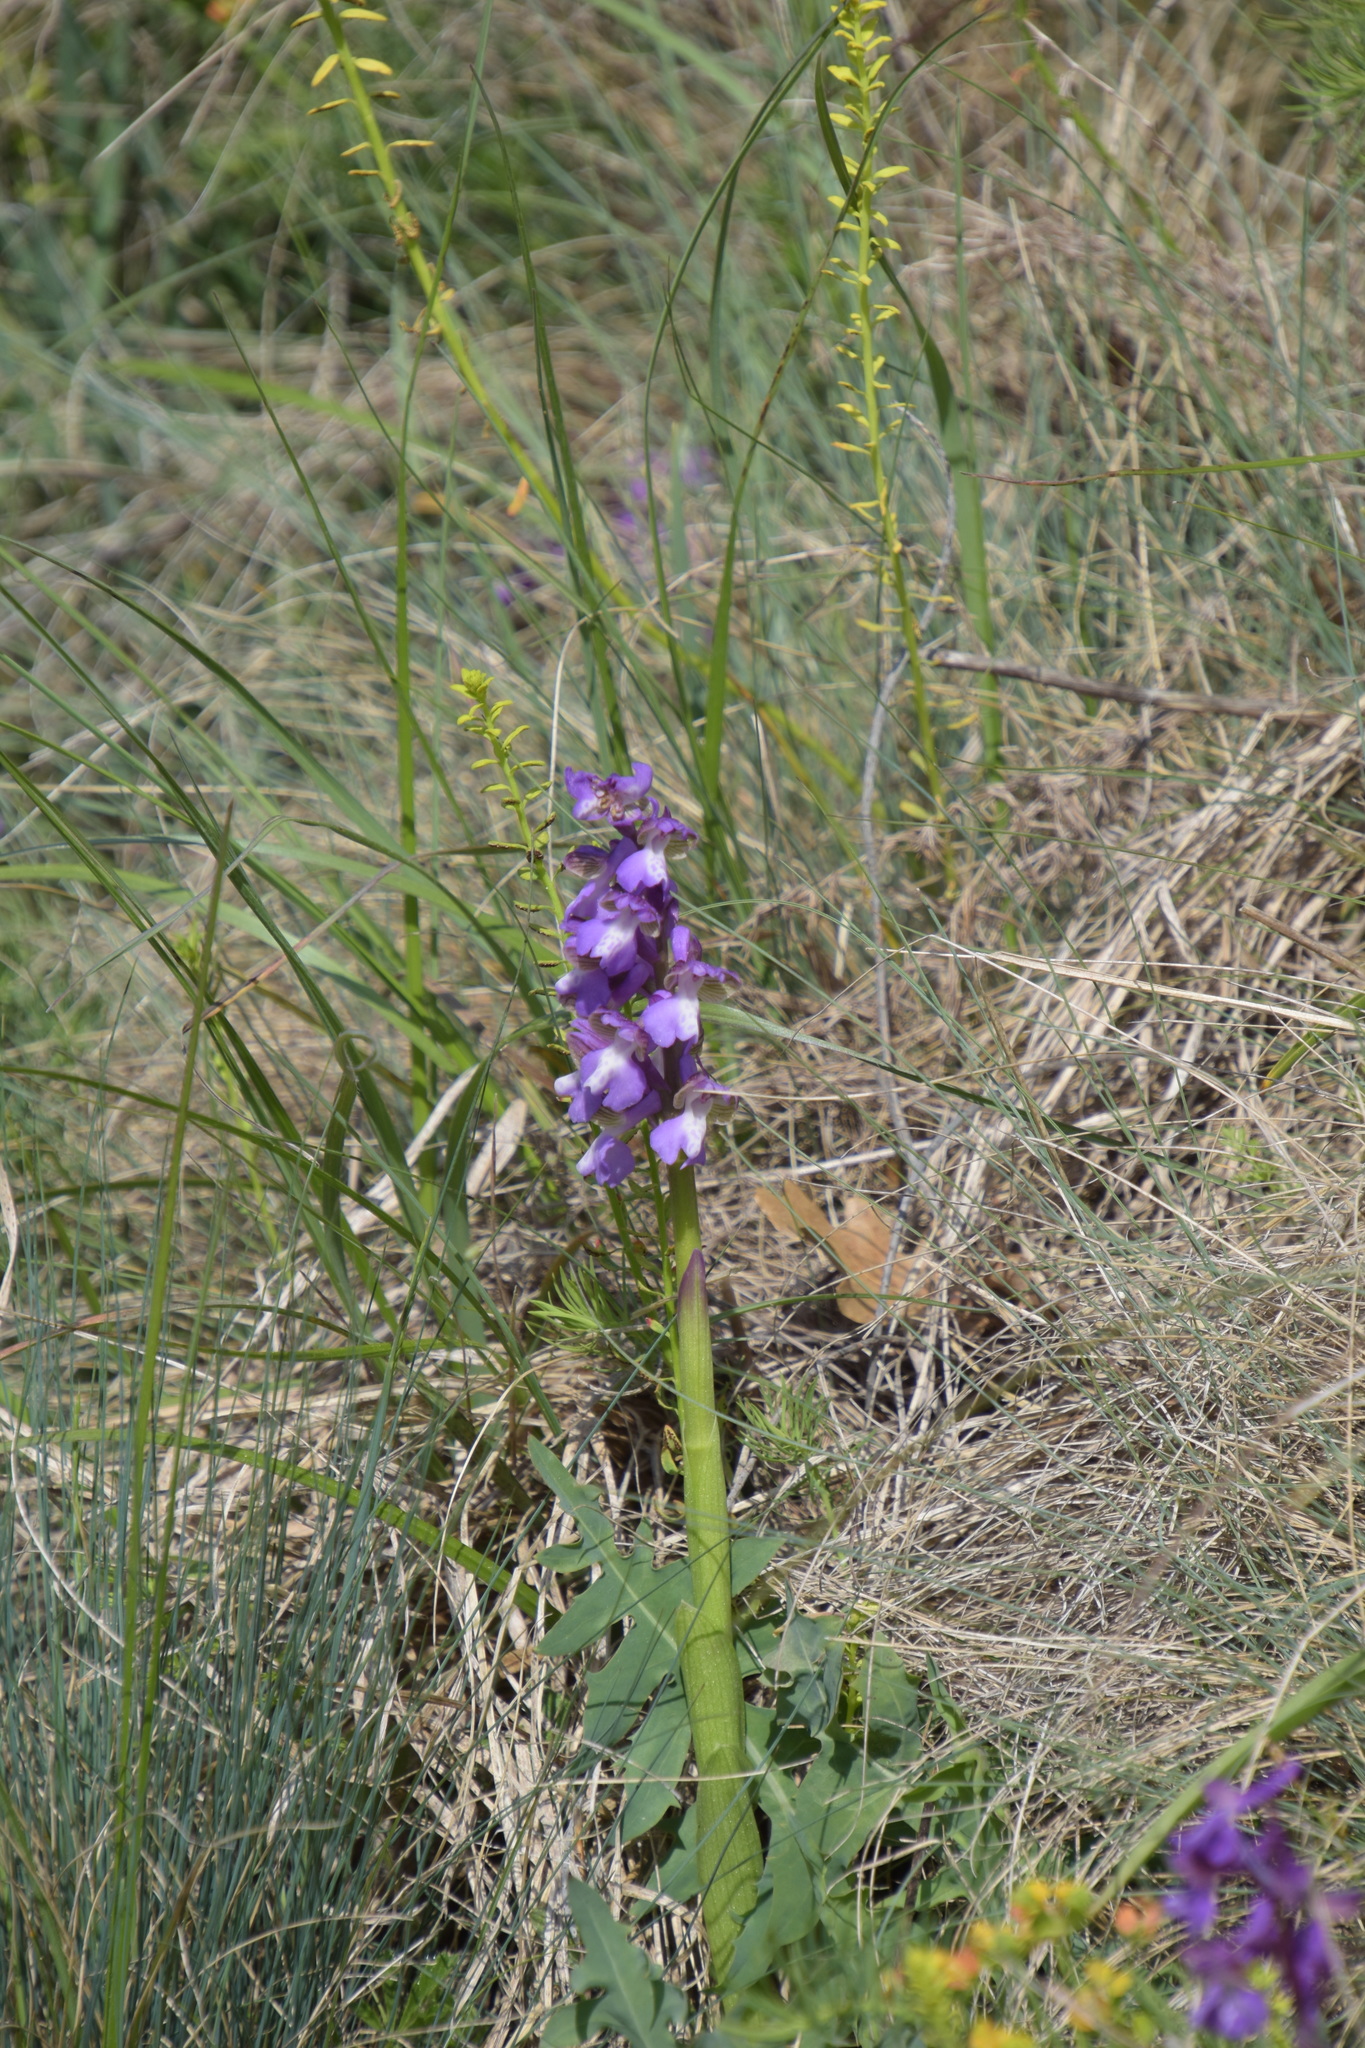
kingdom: Plantae
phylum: Tracheophyta
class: Liliopsida
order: Asparagales
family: Orchidaceae
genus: Anacamptis
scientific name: Anacamptis morio
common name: Green-winged orchid
